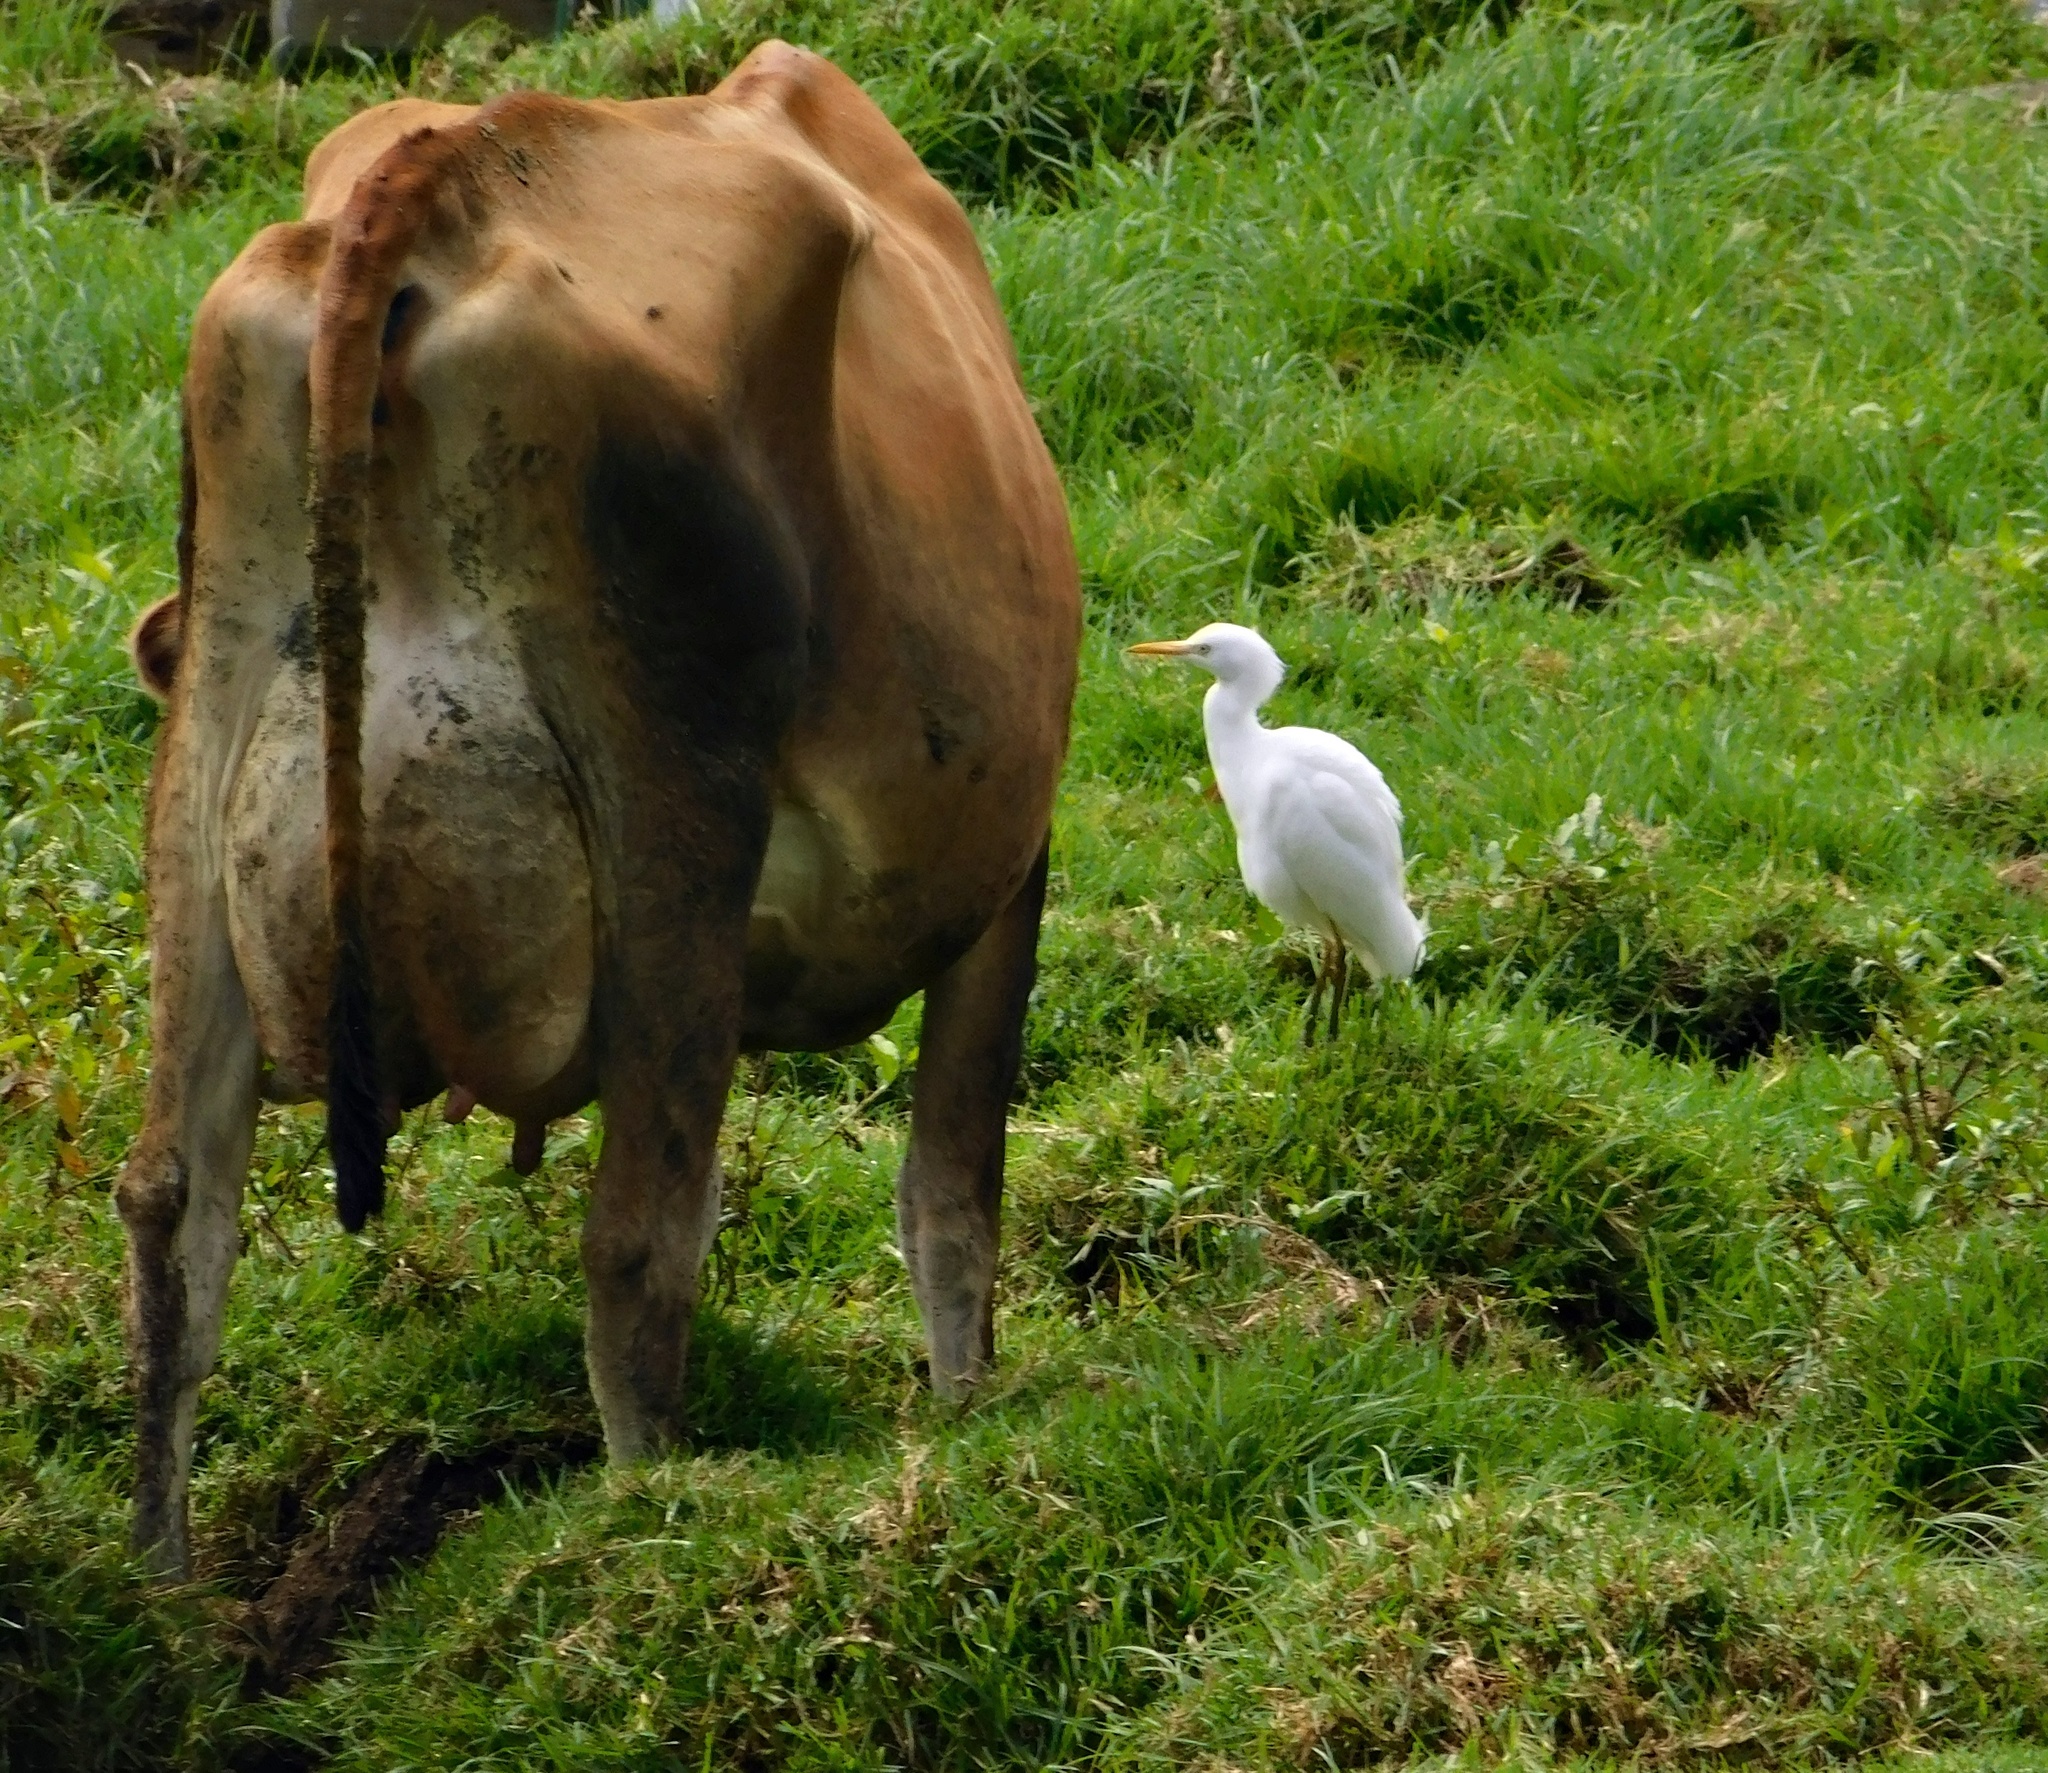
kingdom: Animalia
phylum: Chordata
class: Aves
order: Pelecaniformes
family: Ardeidae
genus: Bubulcus
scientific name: Bubulcus ibis
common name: Cattle egret
